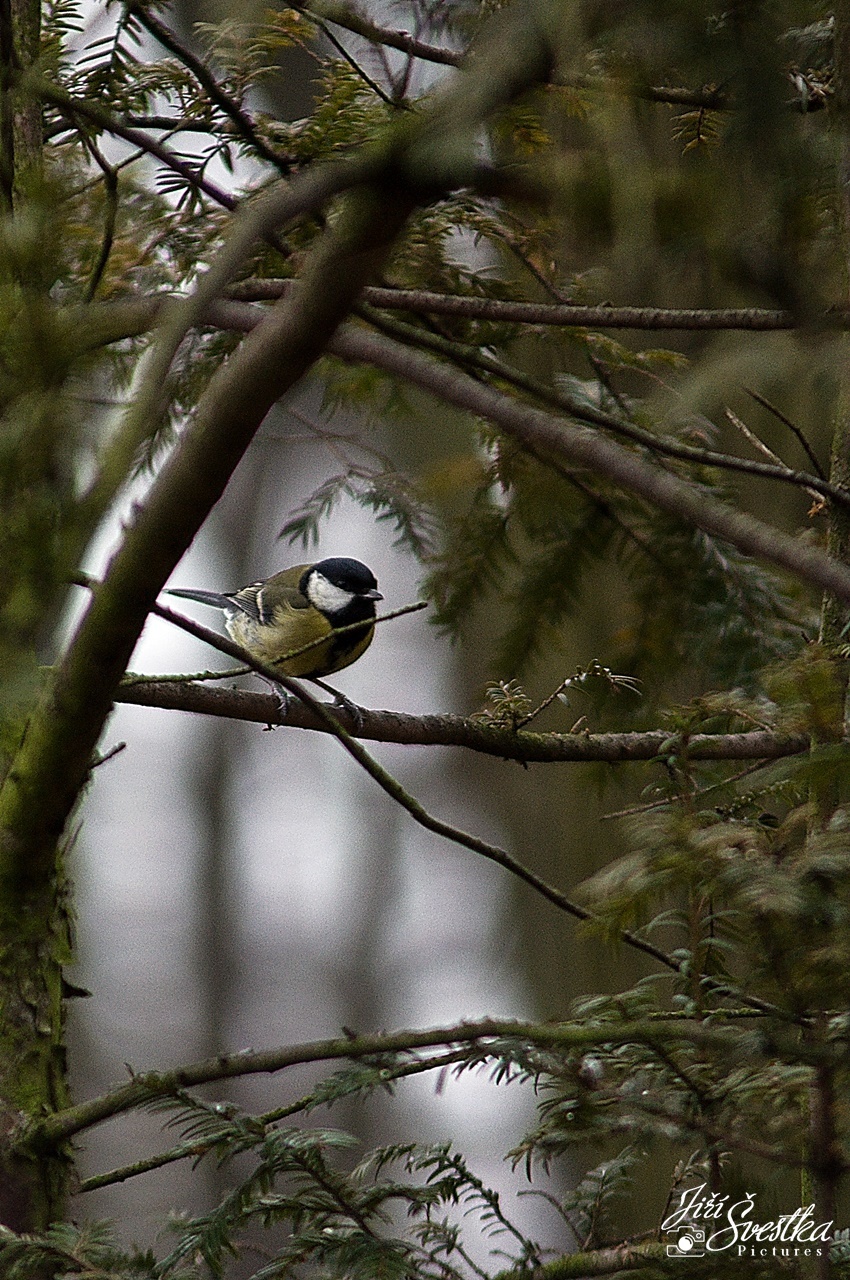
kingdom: Animalia
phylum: Chordata
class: Aves
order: Passeriformes
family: Paridae
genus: Parus
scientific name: Parus major
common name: Great tit
